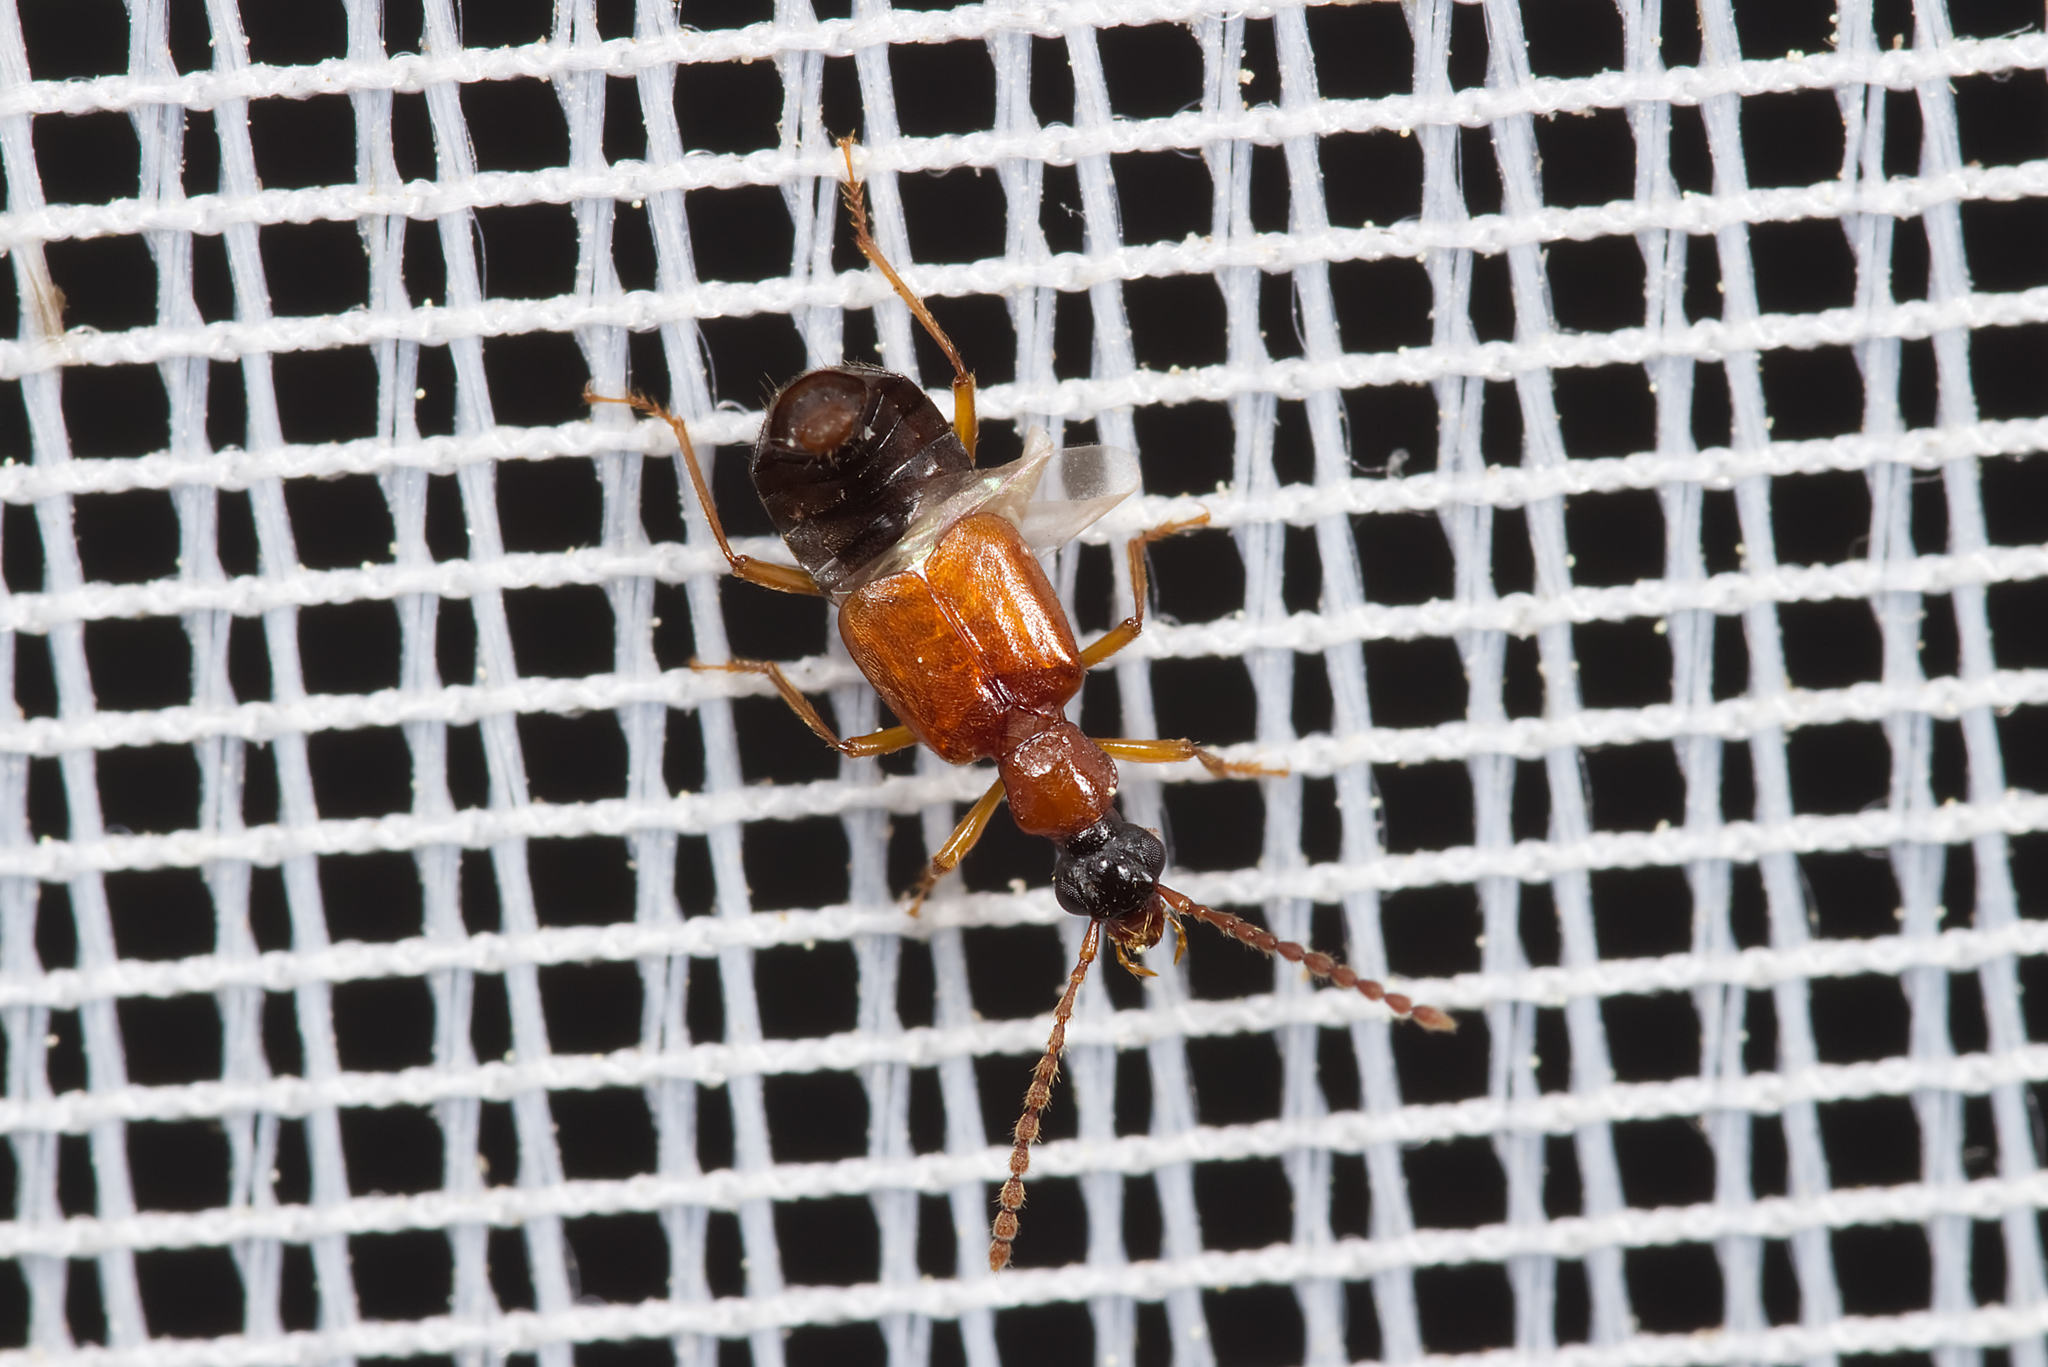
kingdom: Animalia
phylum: Arthropoda
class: Insecta
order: Coleoptera
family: Staphylinidae
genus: Deleaster
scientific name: Deleaster dichrous
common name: Rove beetle
